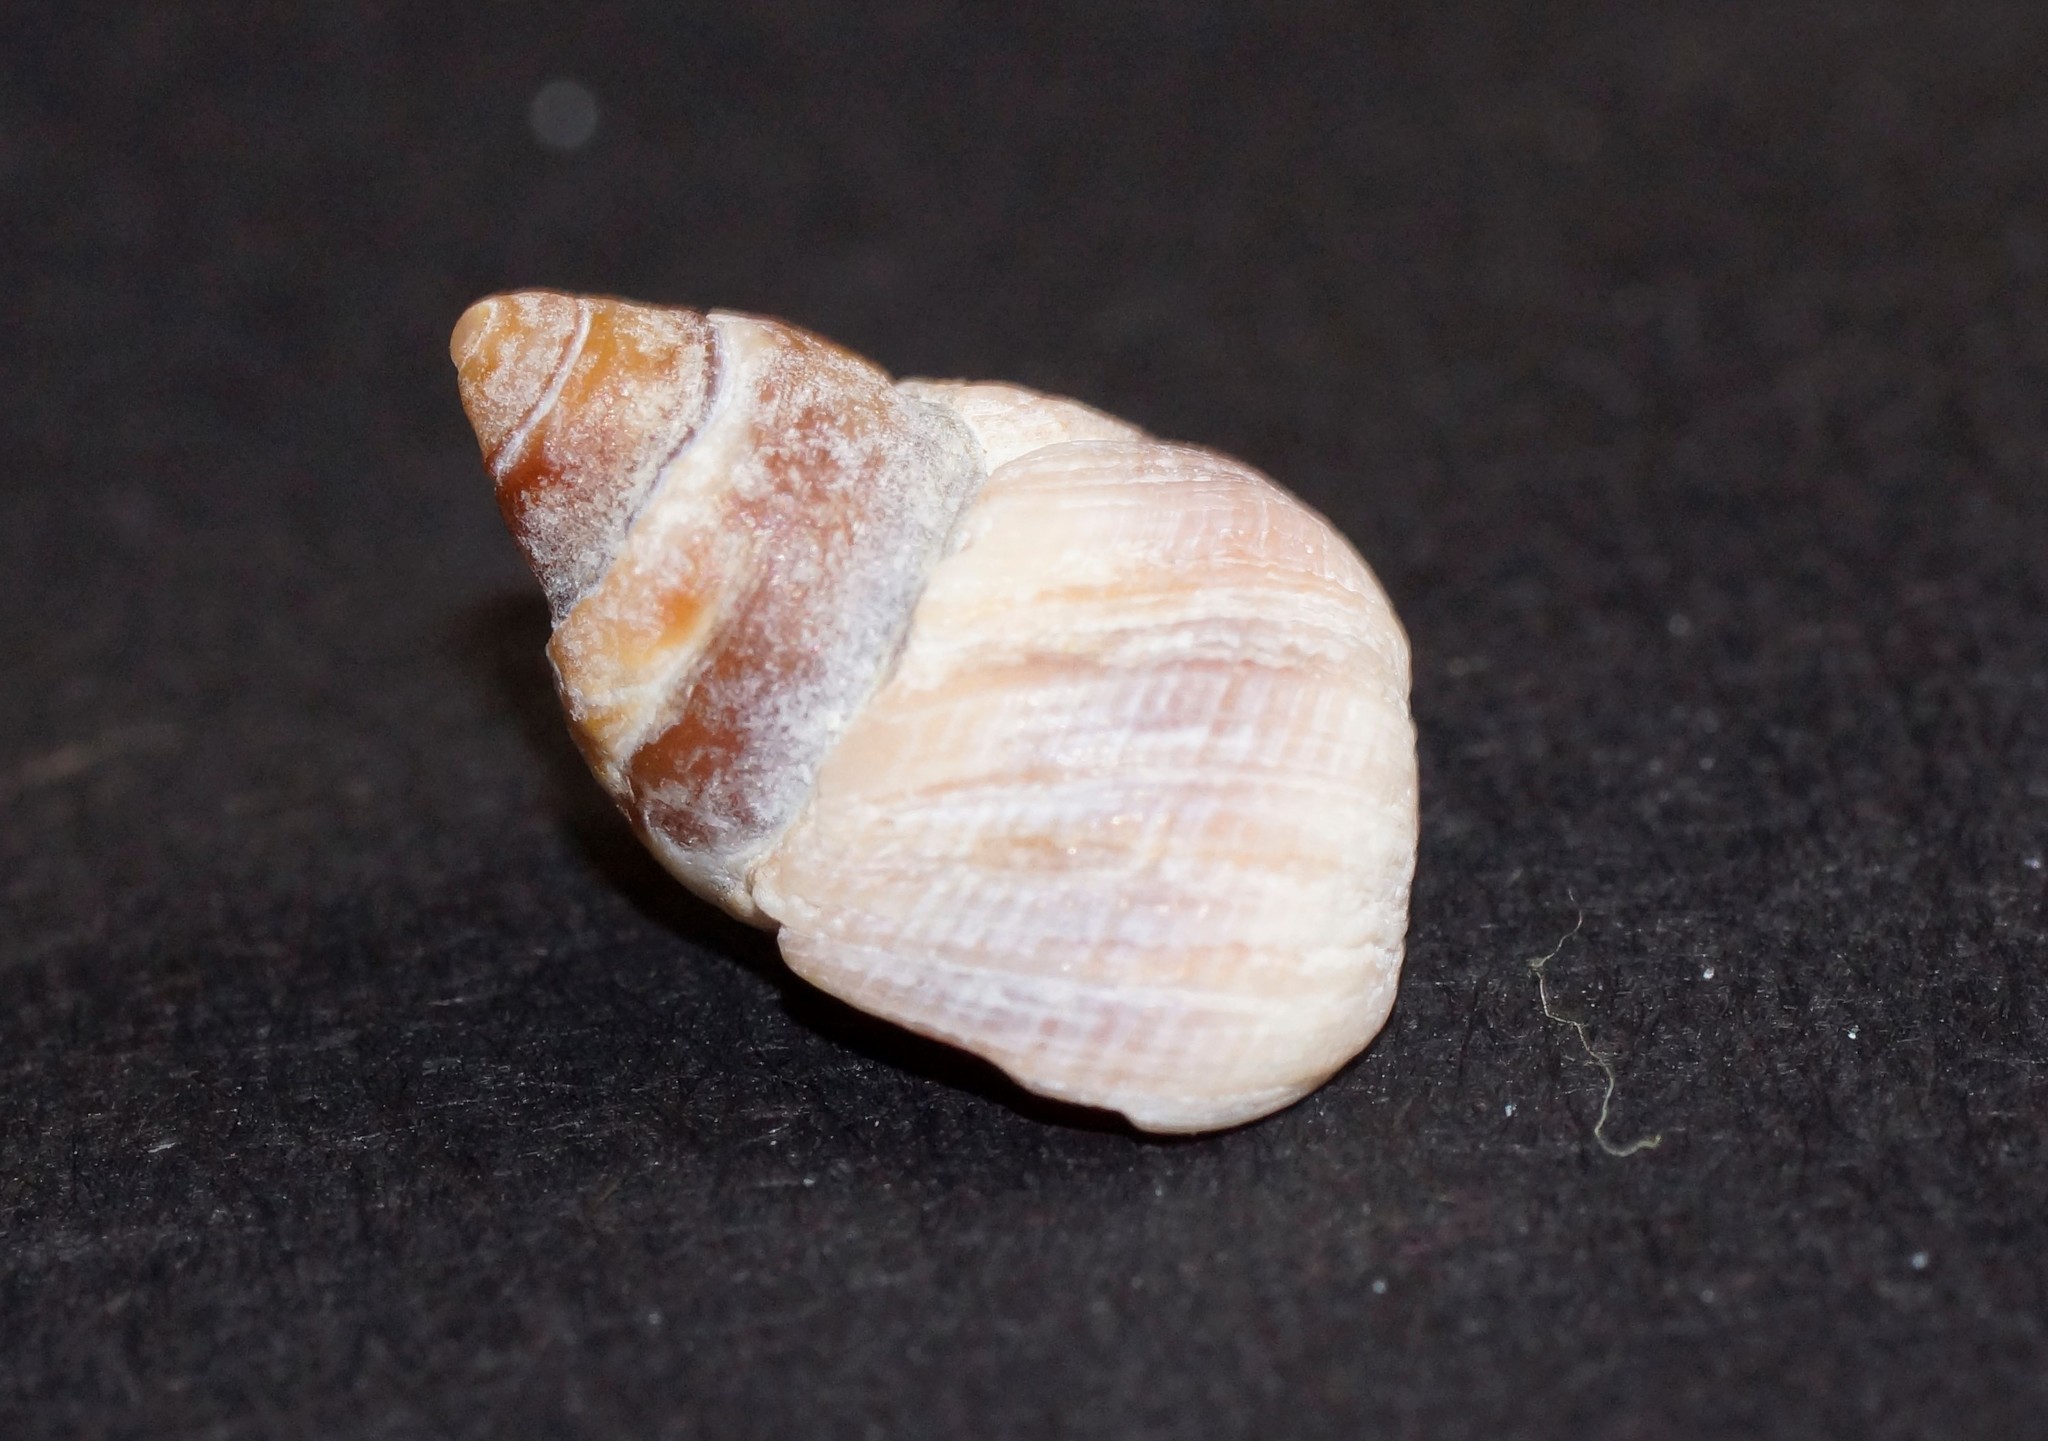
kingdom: Animalia
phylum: Mollusca
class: Gastropoda
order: Littorinimorpha
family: Littorinidae
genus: Austrolittorina
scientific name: Austrolittorina unifasciata
